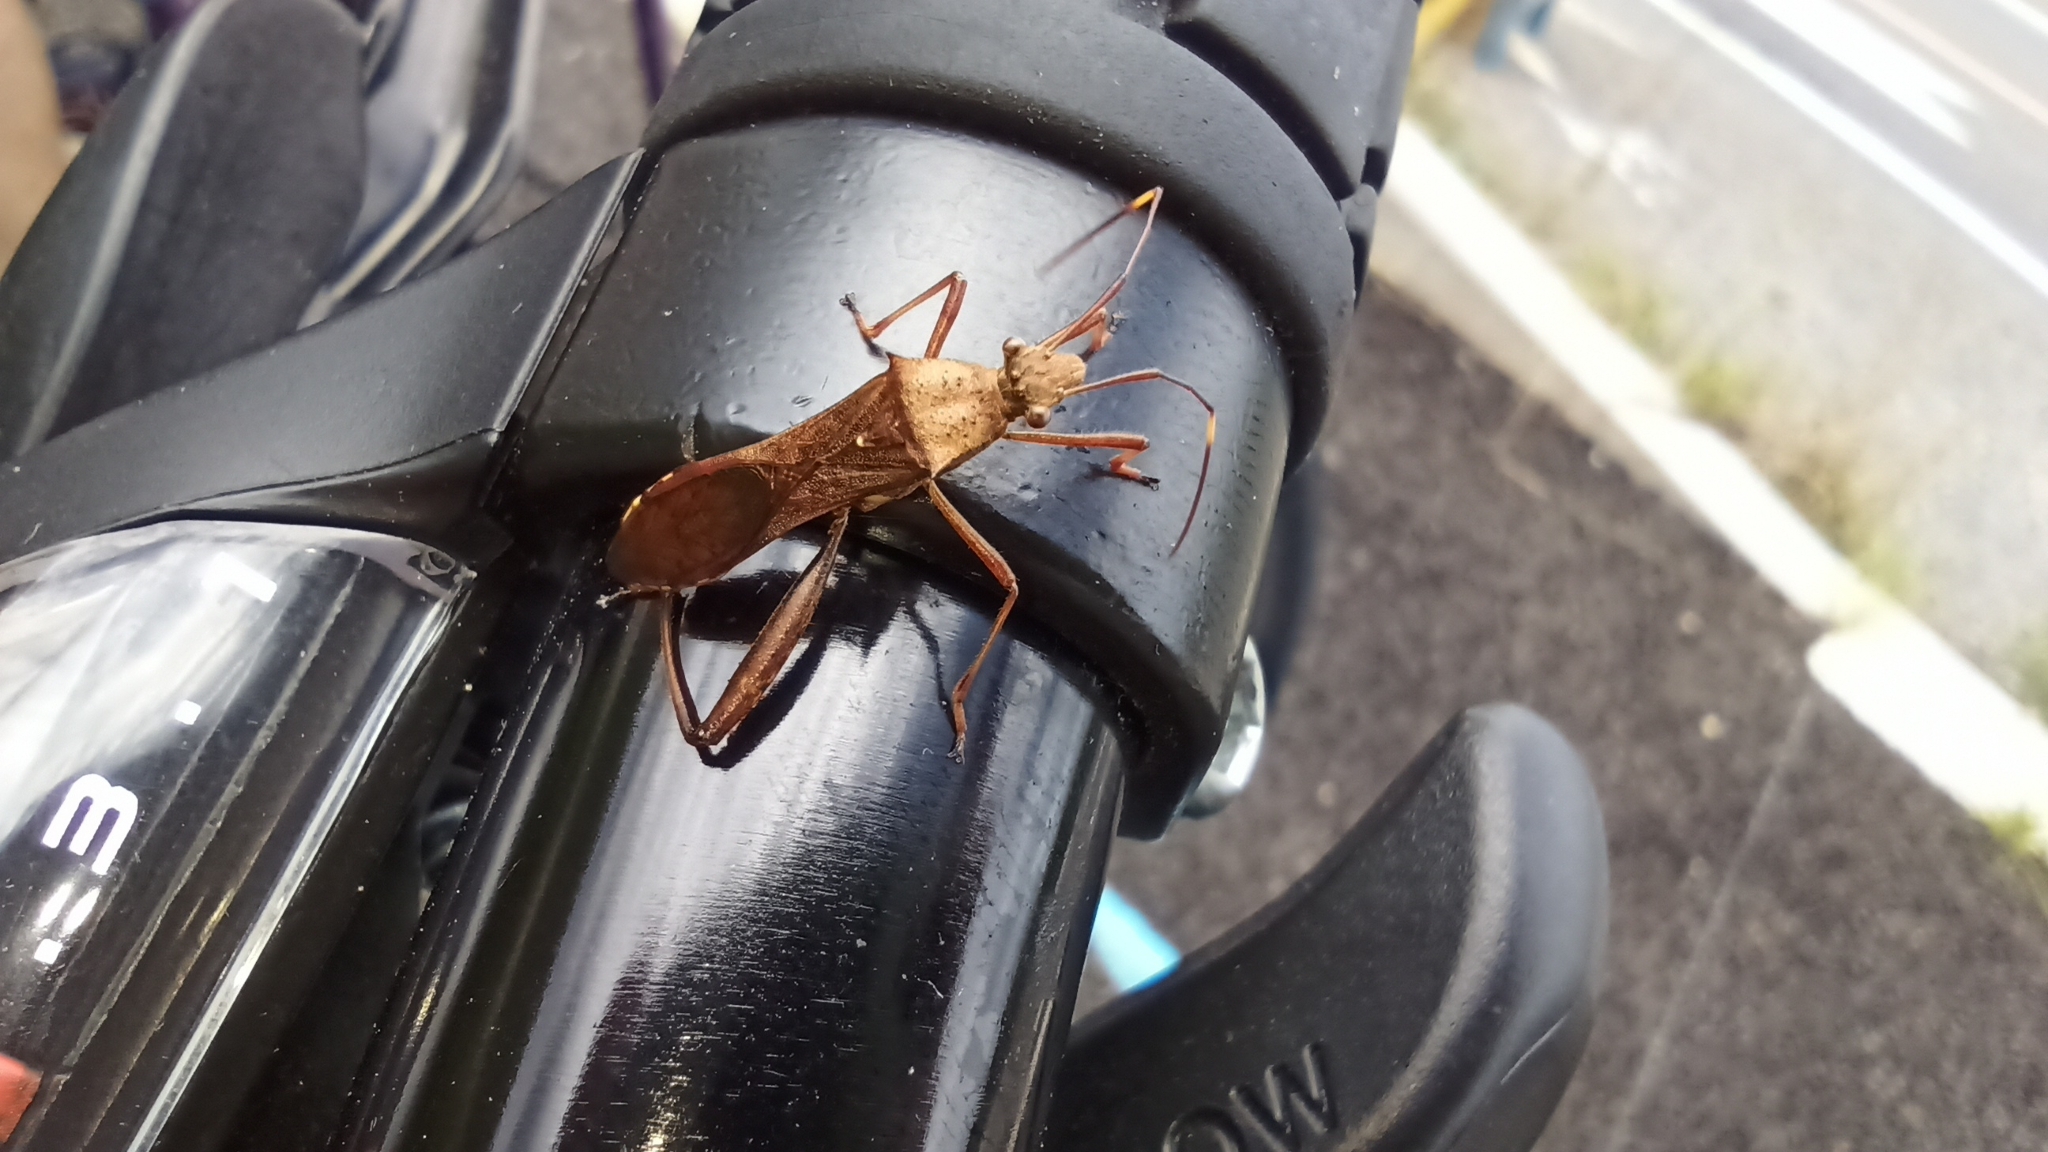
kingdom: Animalia
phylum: Arthropoda
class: Insecta
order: Hemiptera
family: Alydidae
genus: Riptortus
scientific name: Riptortus pedestris
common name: Bean bug
